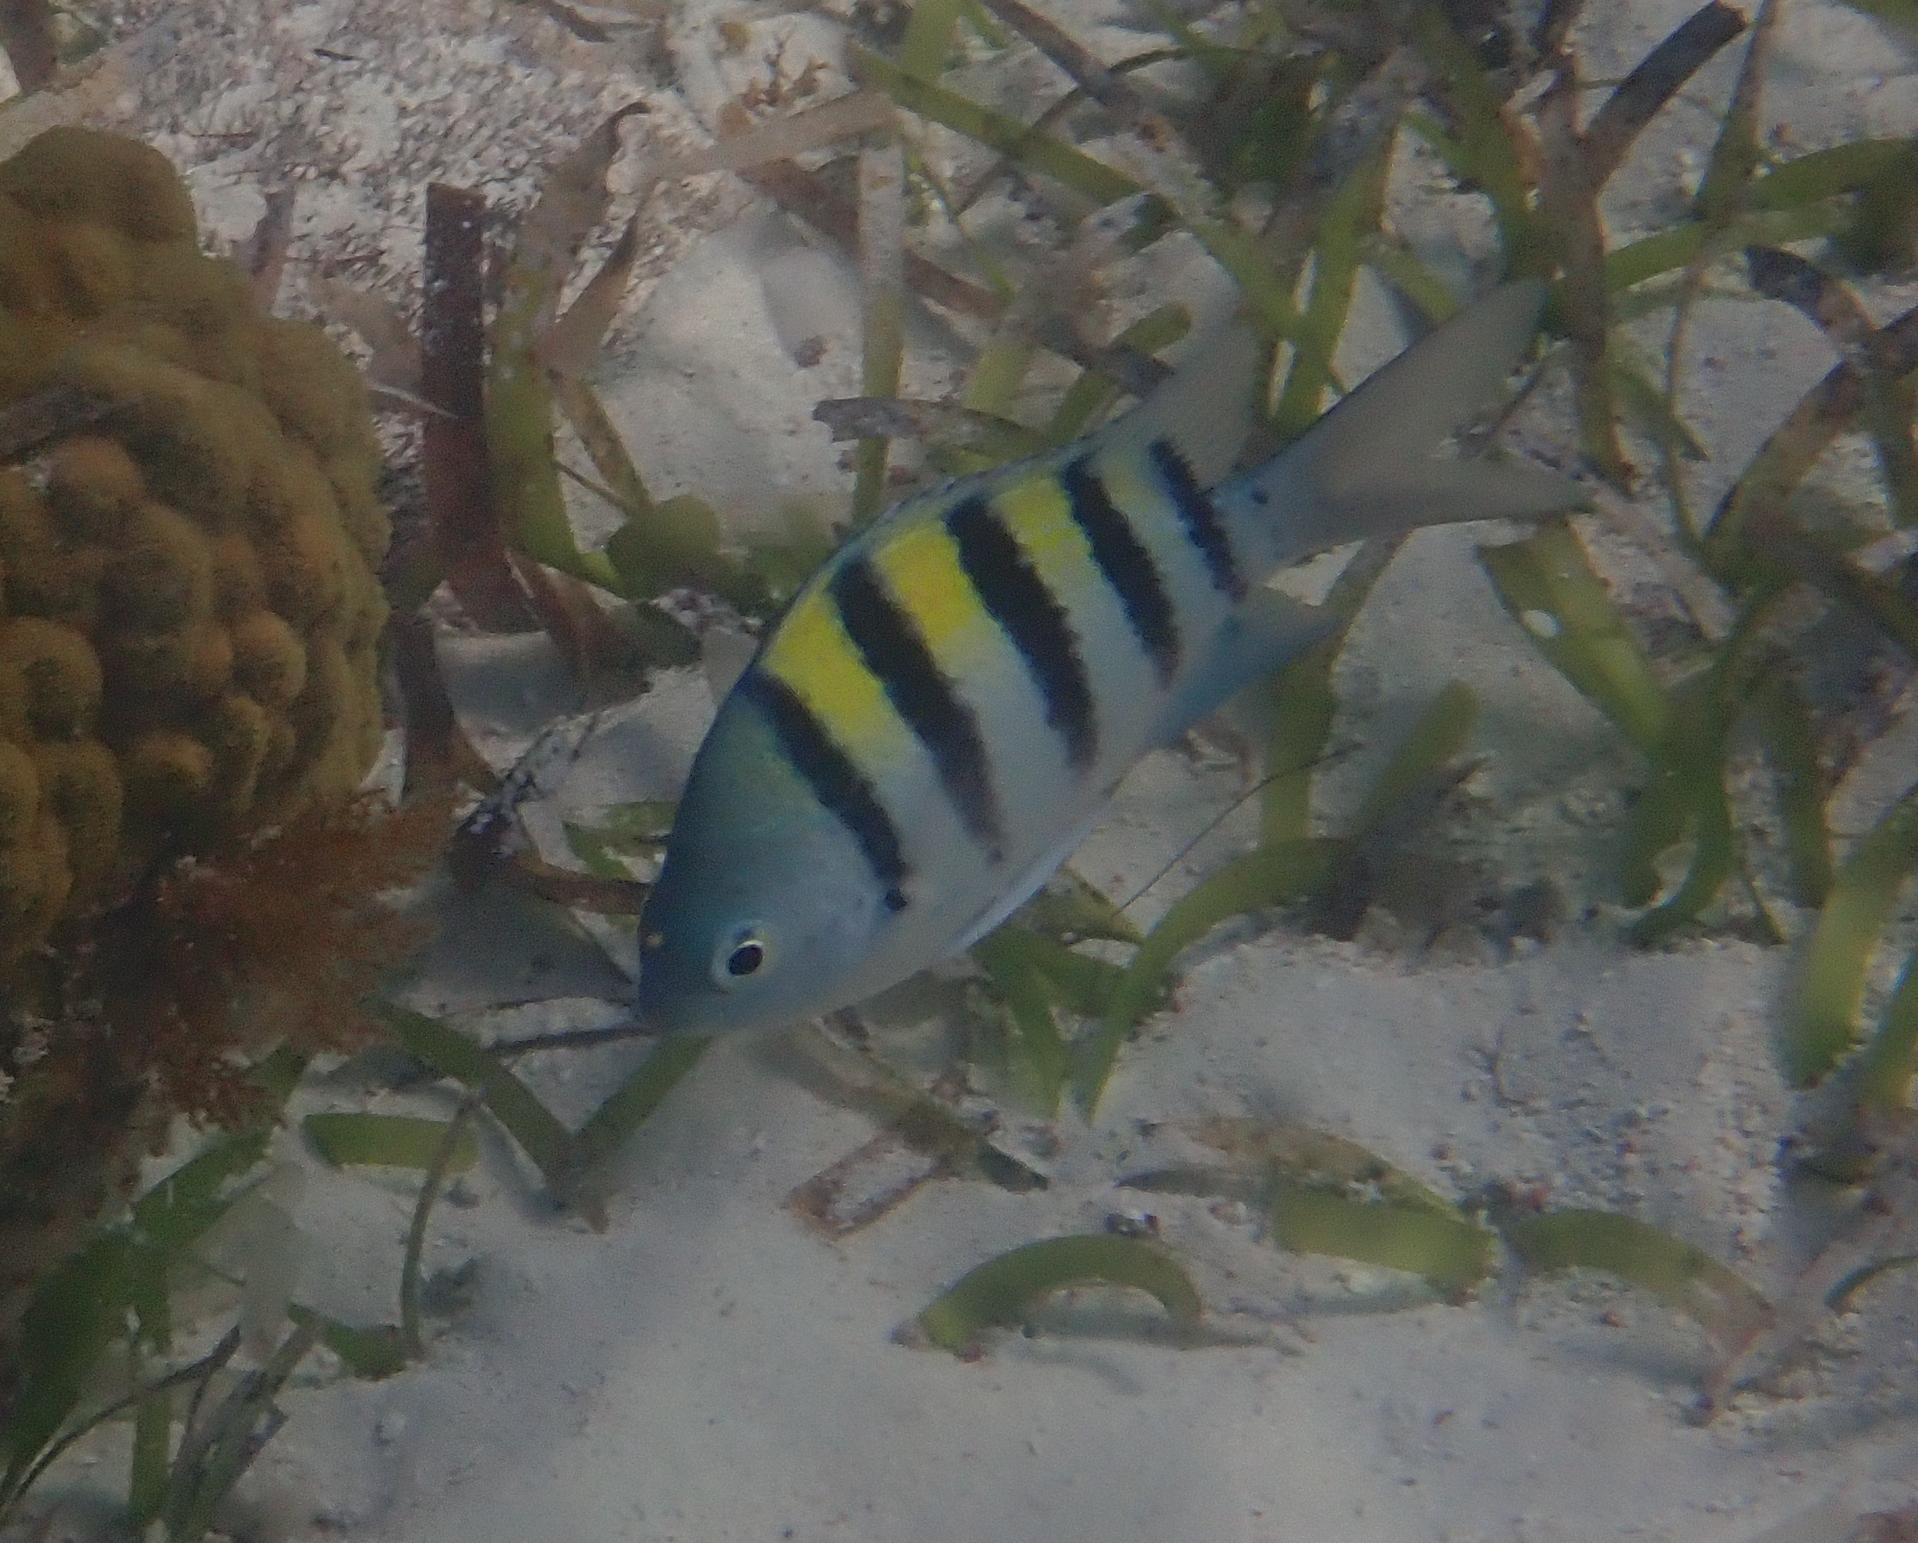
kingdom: Animalia
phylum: Chordata
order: Perciformes
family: Pomacentridae
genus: Abudefduf
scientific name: Abudefduf saxatilis
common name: Sergeant major
